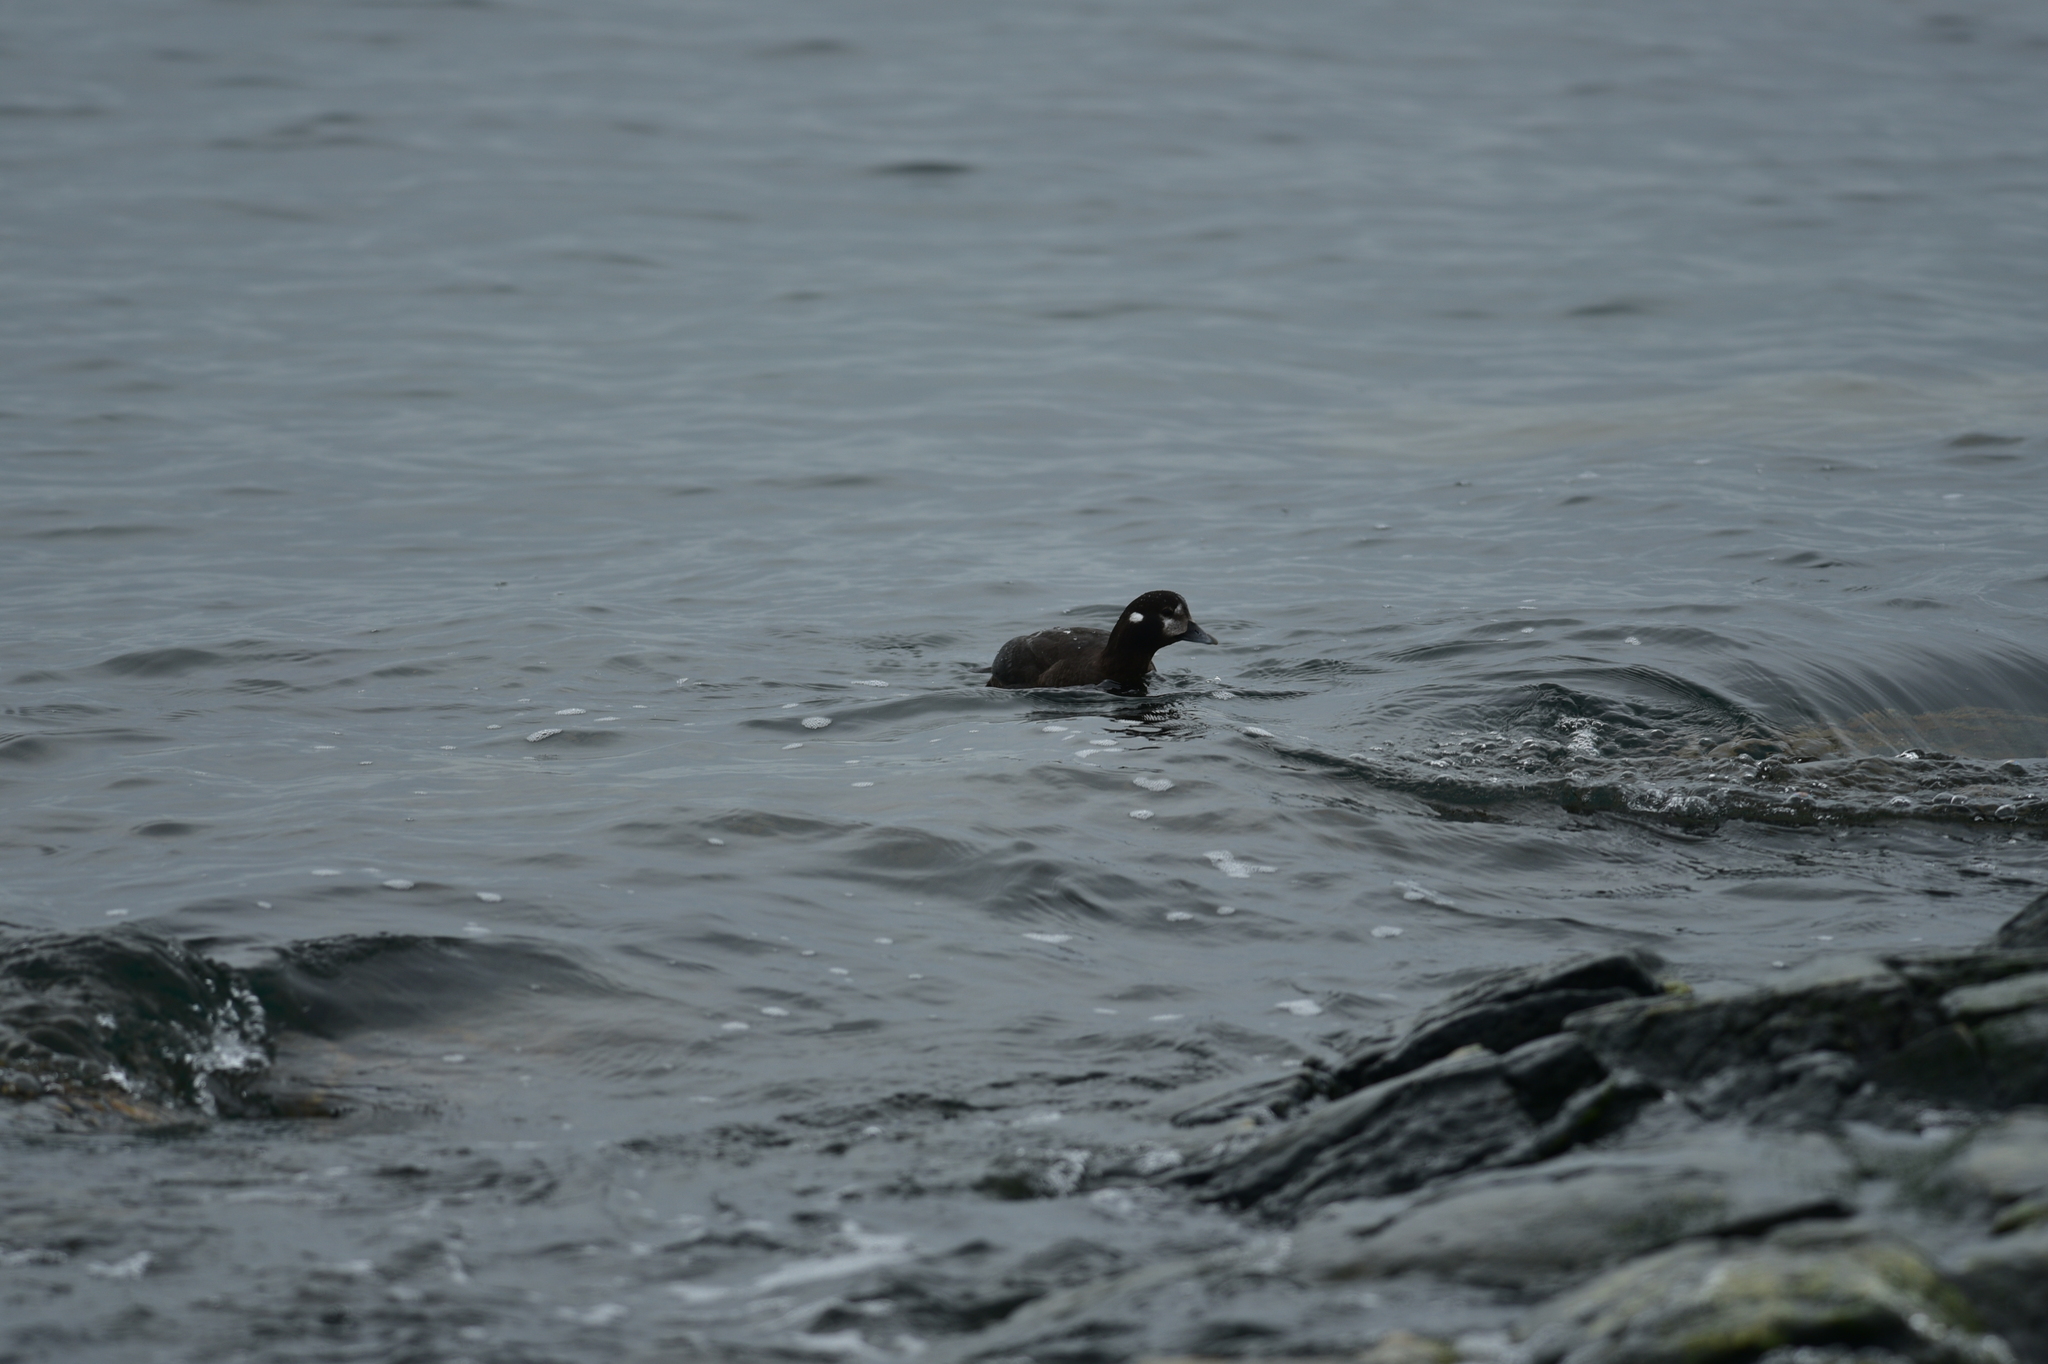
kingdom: Animalia
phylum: Chordata
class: Aves
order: Anseriformes
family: Anatidae
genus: Histrionicus
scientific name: Histrionicus histrionicus
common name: Harlequin duck
